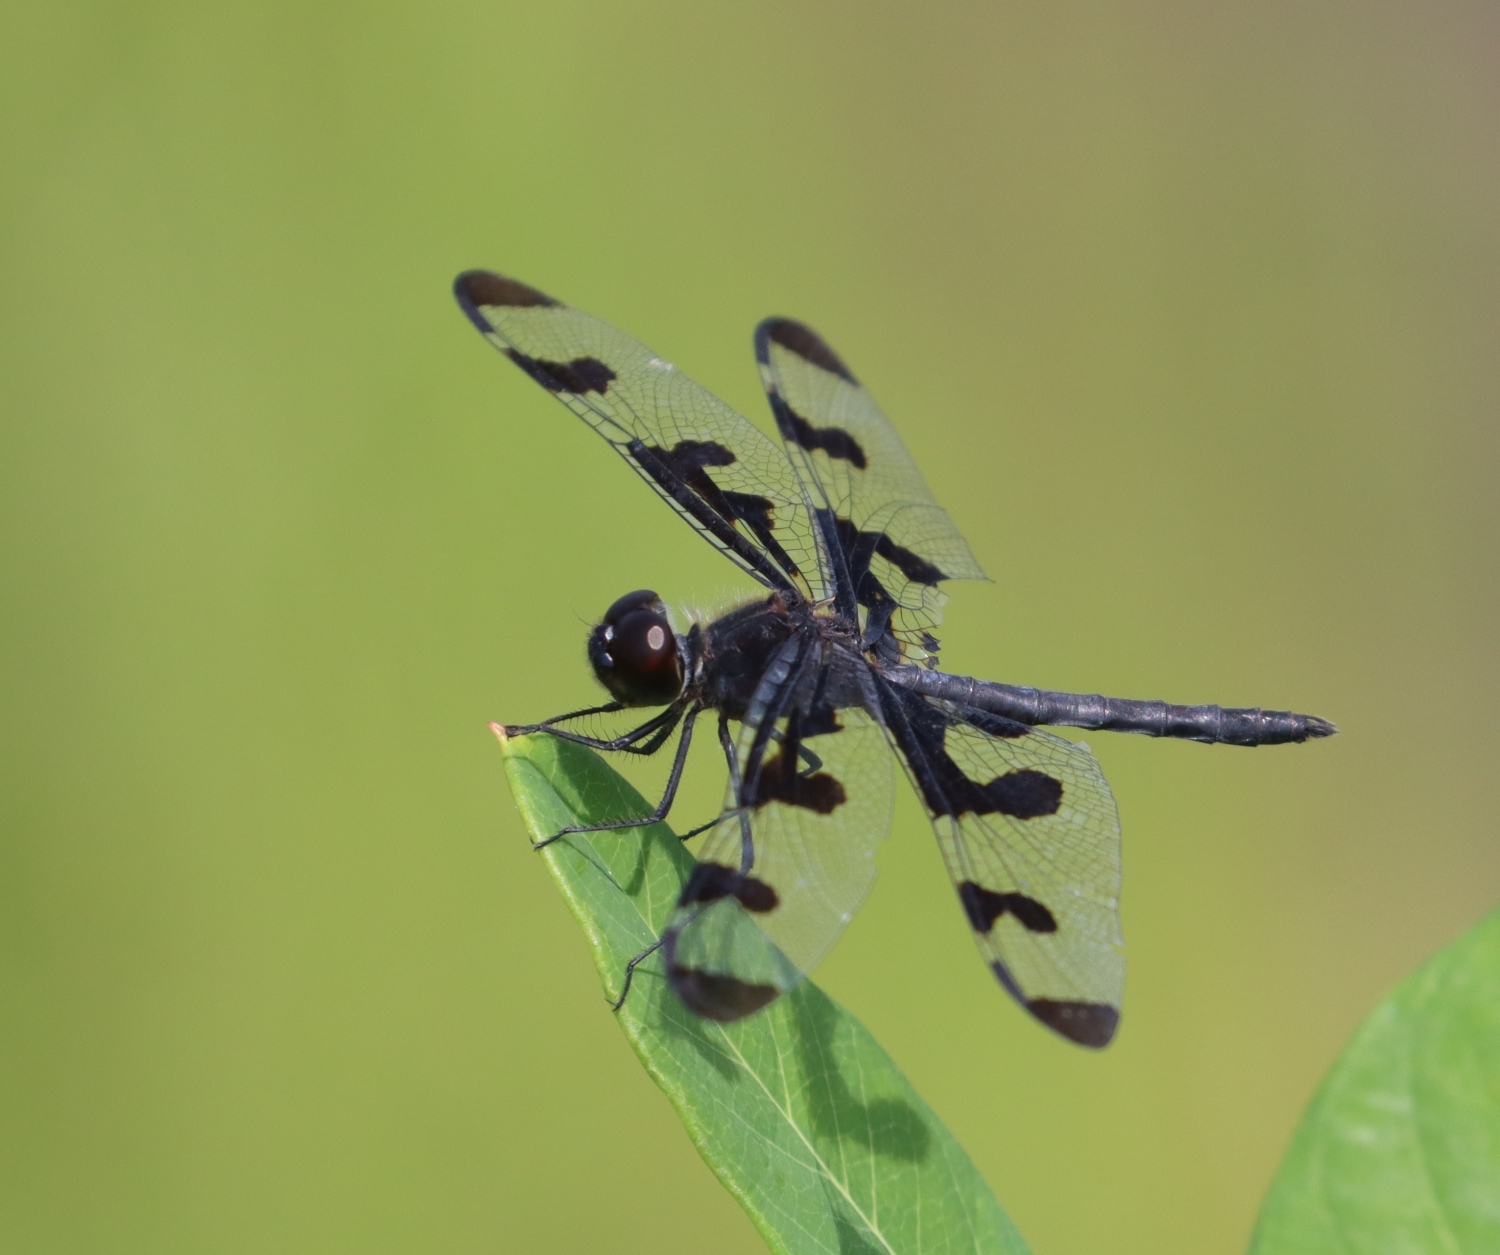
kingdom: Animalia
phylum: Arthropoda
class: Insecta
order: Odonata
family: Libellulidae
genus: Celithemis
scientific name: Celithemis fasciata
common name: Banded pennant
